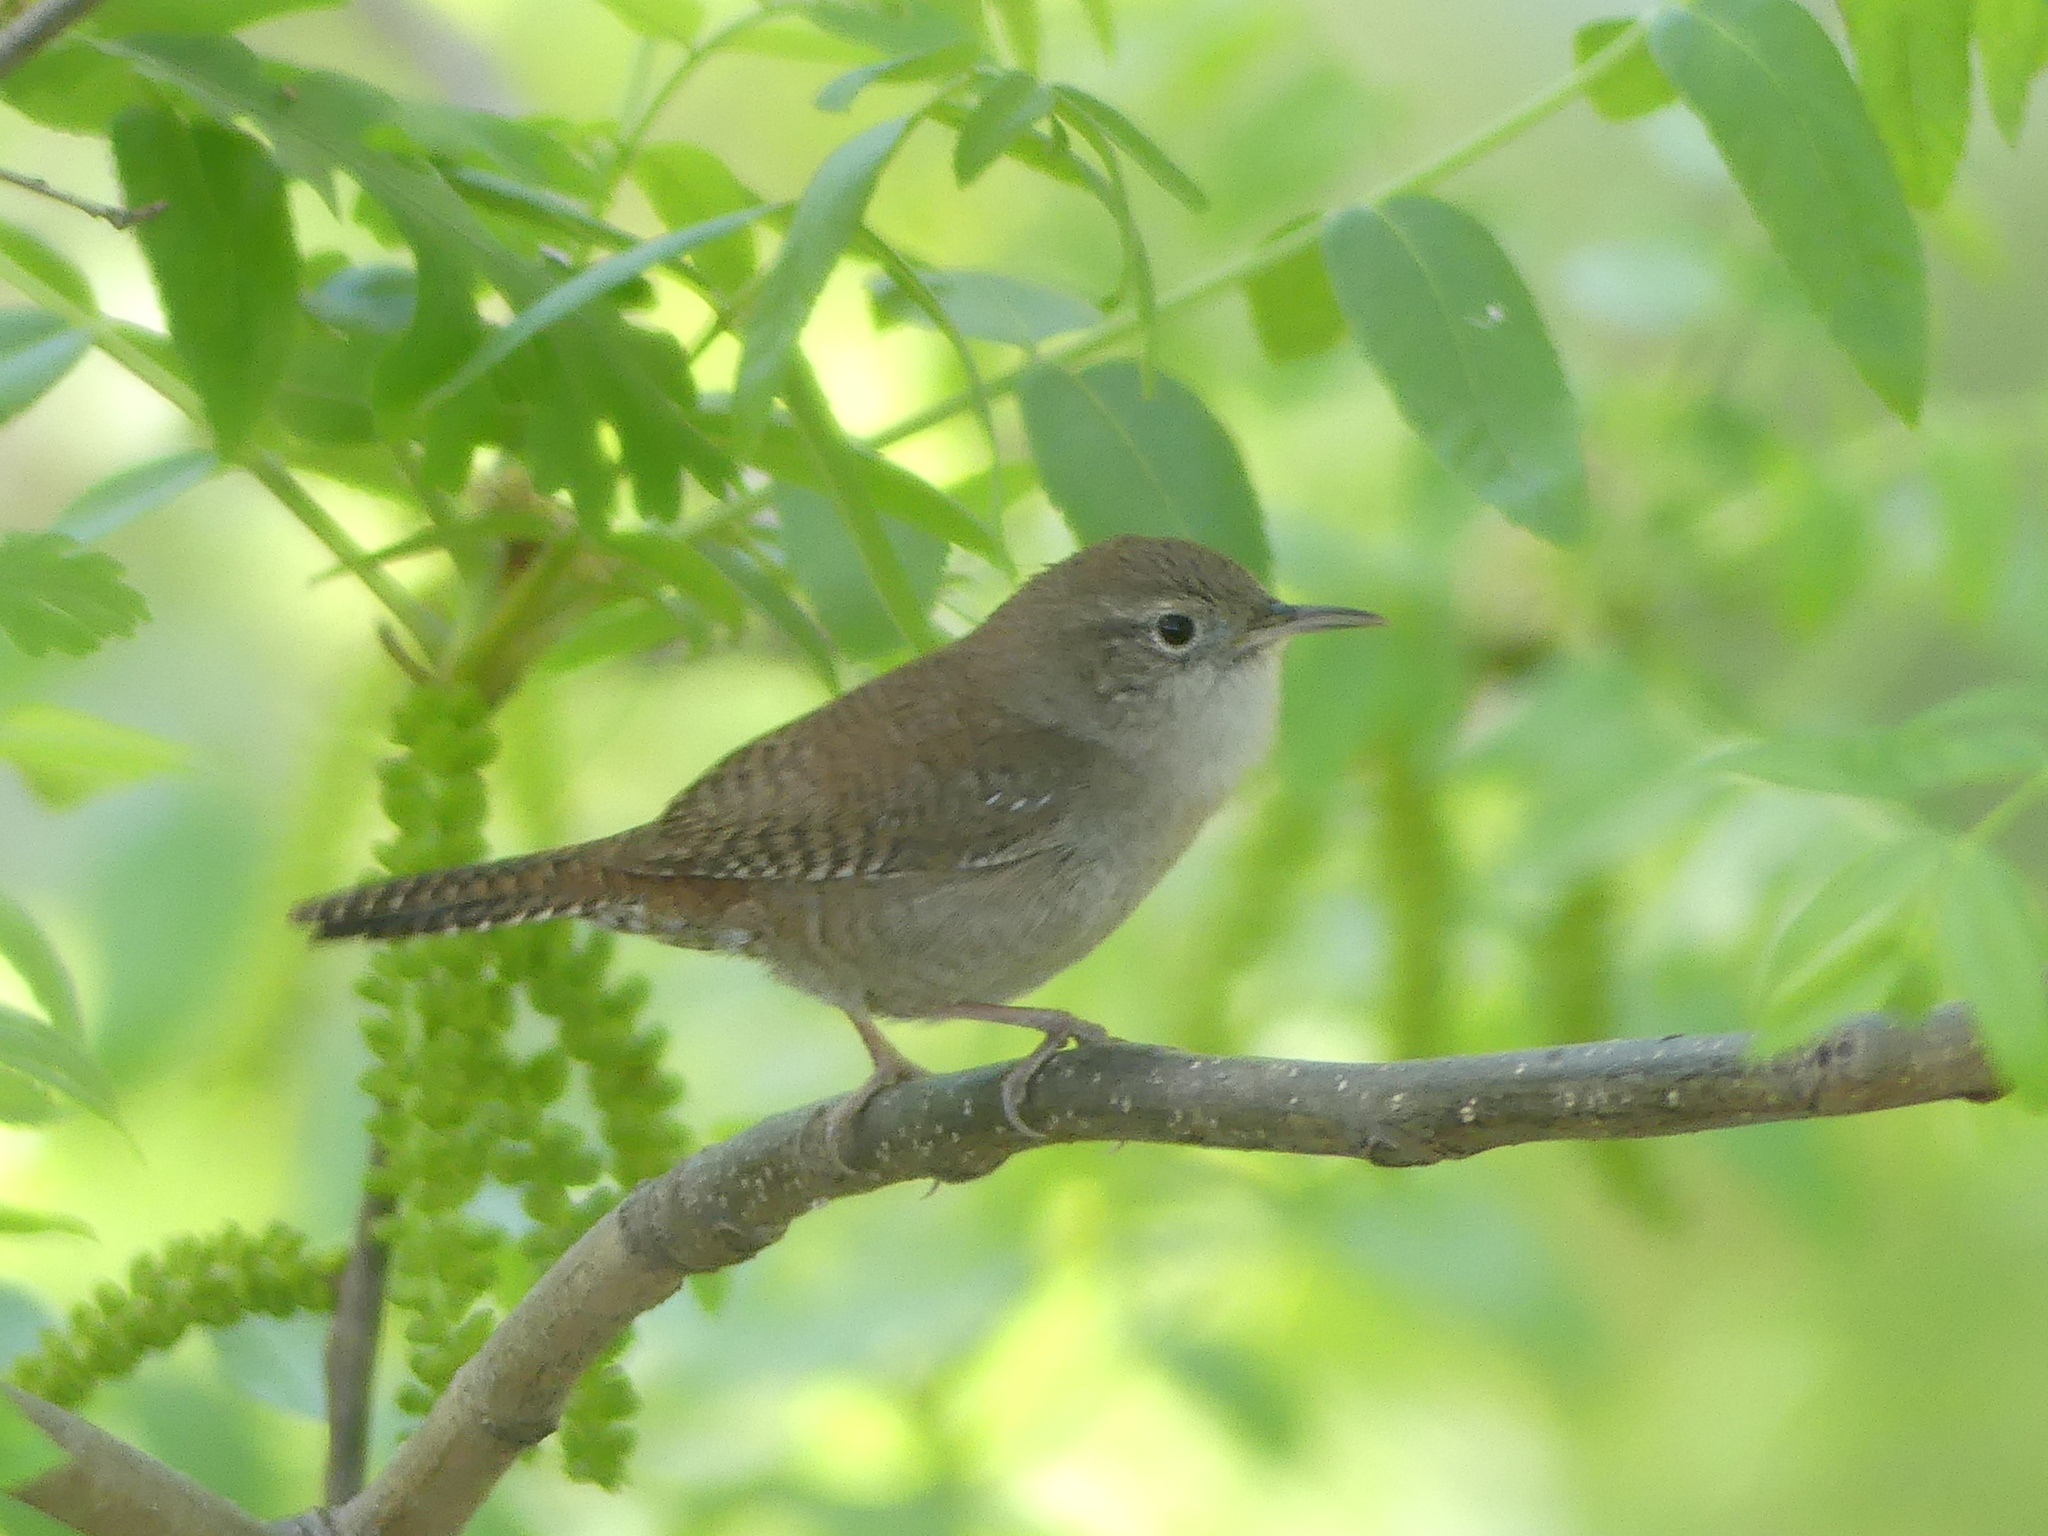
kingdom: Animalia
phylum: Chordata
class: Aves
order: Passeriformes
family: Troglodytidae
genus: Troglodytes
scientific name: Troglodytes aedon
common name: House wren
